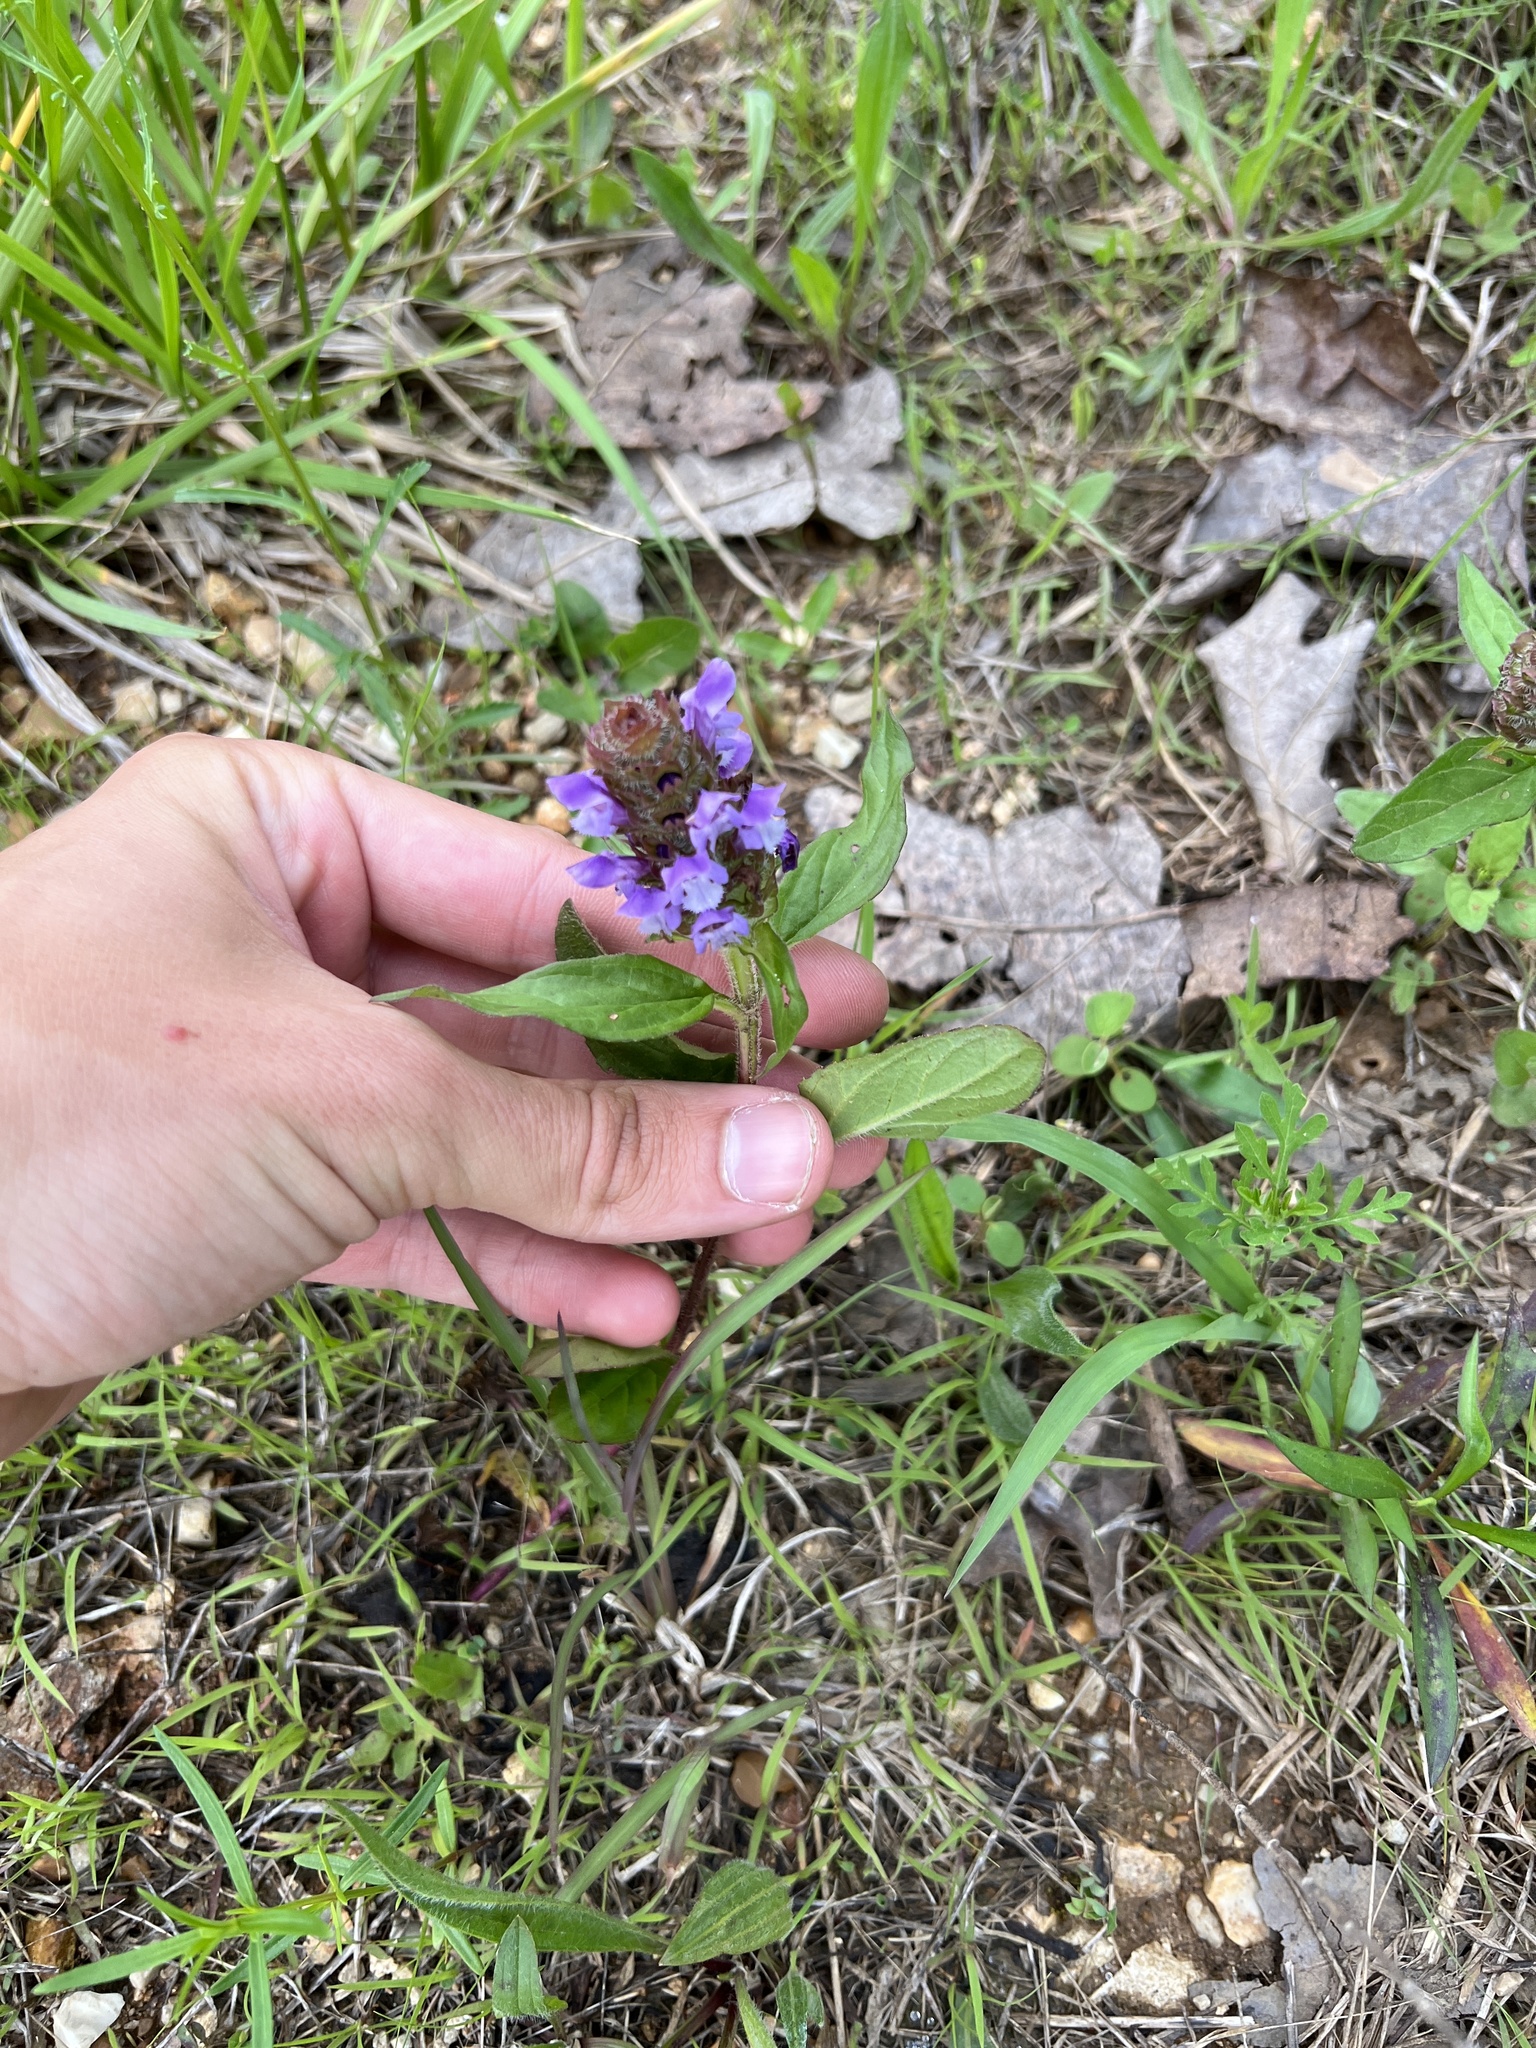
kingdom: Plantae
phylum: Tracheophyta
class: Magnoliopsida
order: Lamiales
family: Lamiaceae
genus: Prunella
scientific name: Prunella vulgaris
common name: Heal-all
